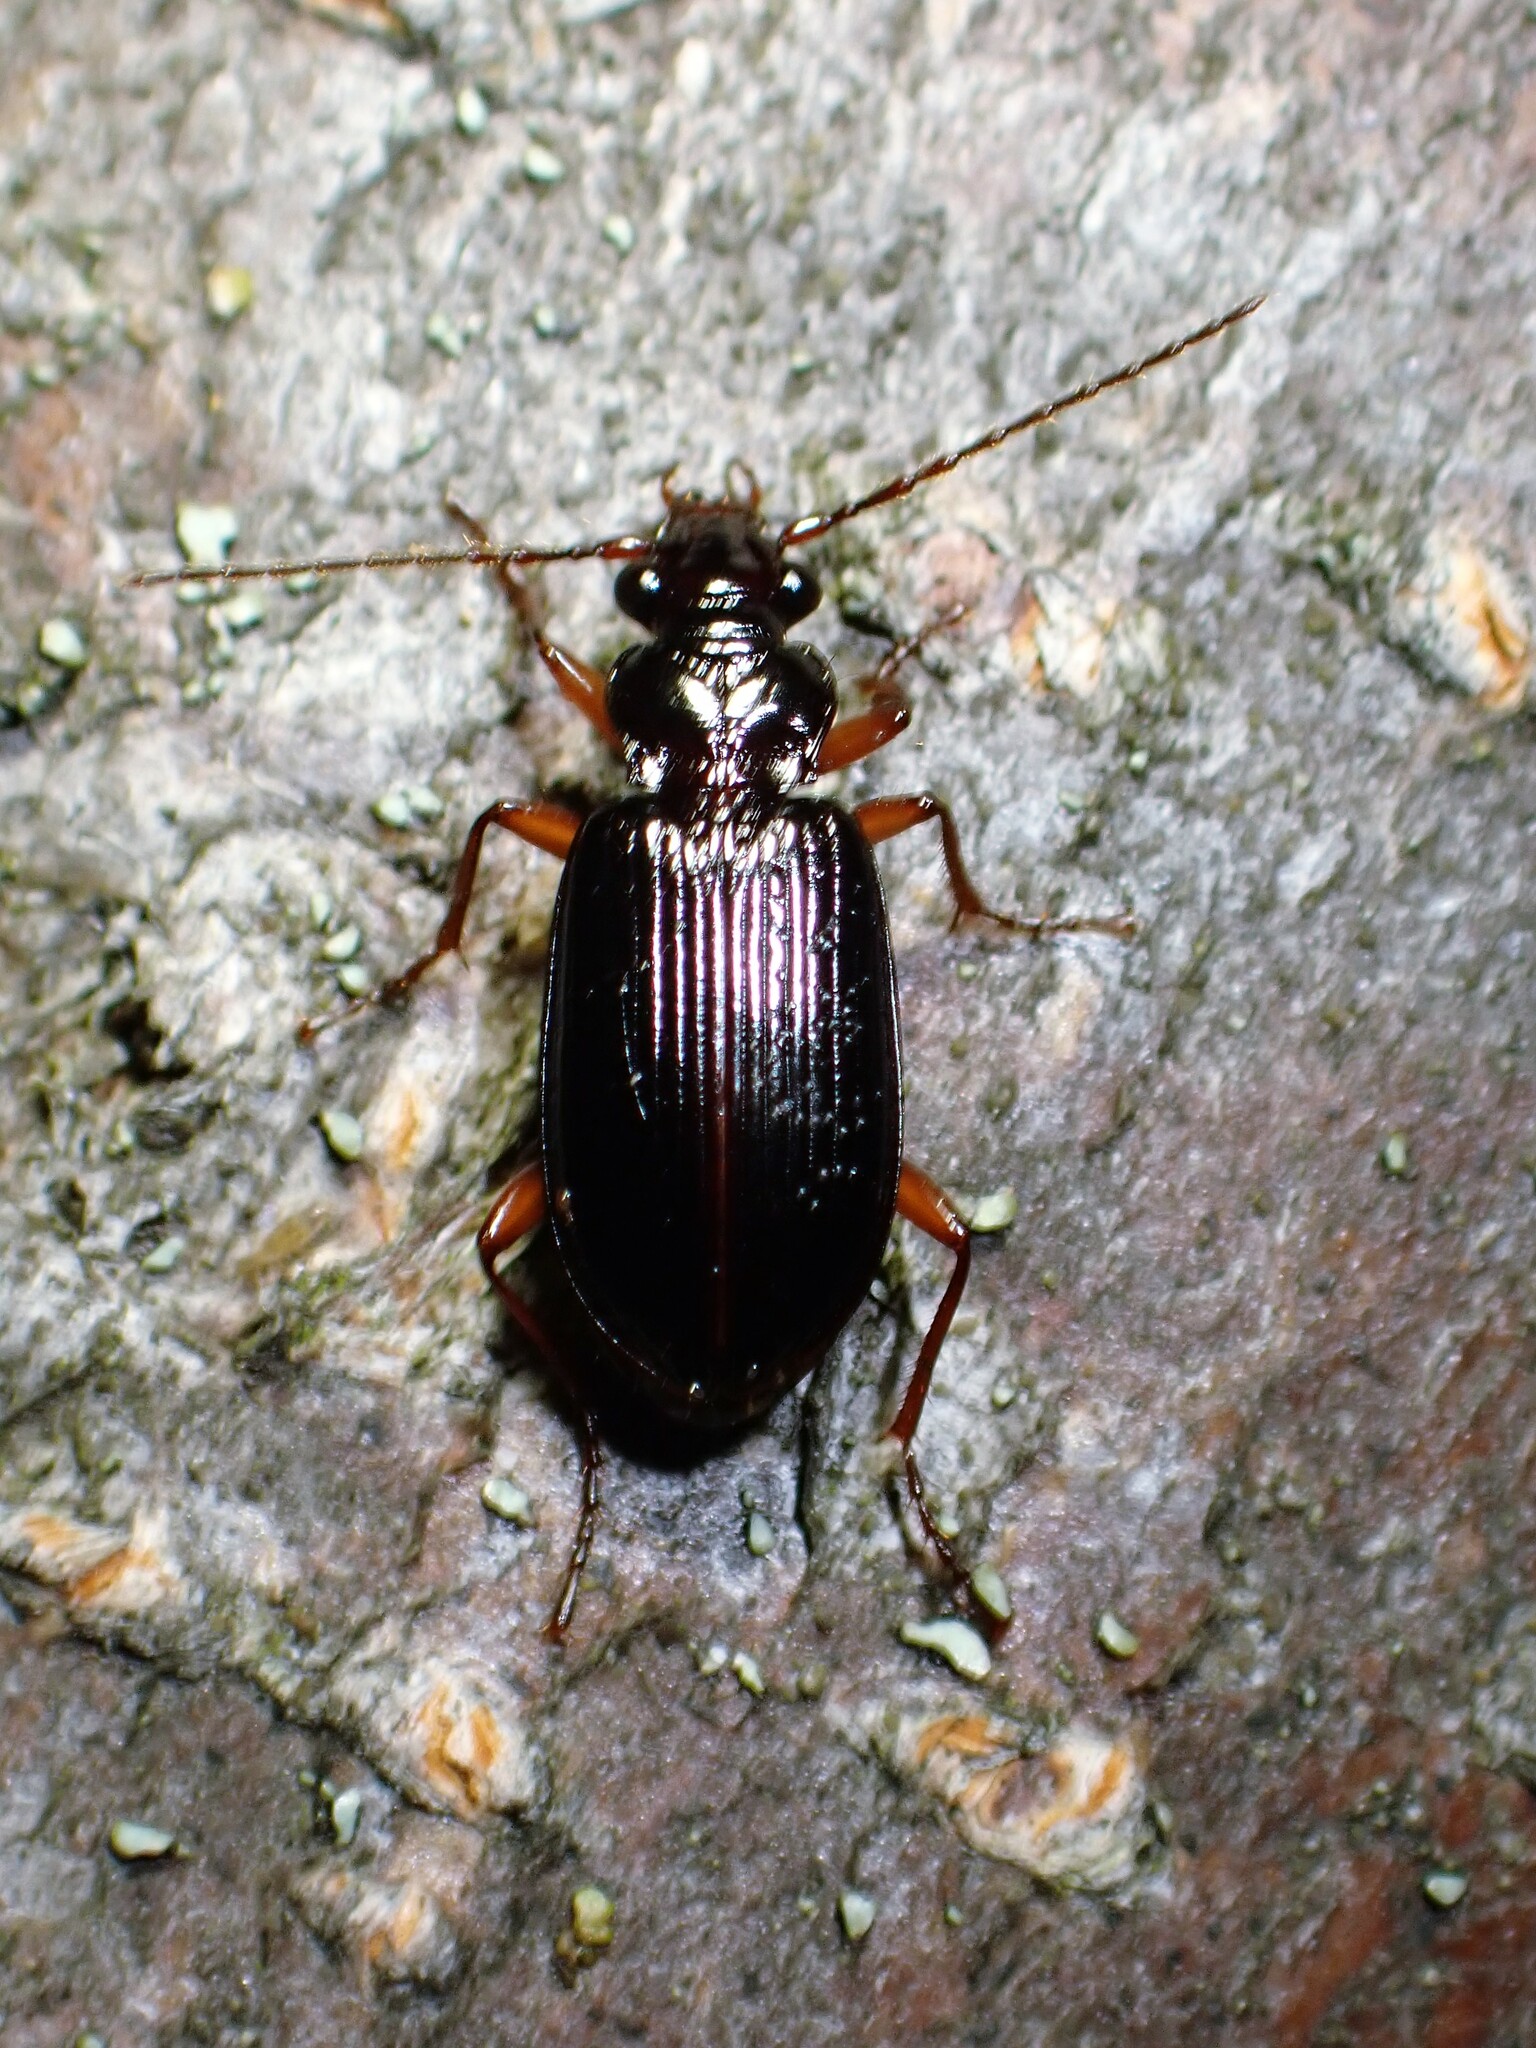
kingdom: Animalia
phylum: Arthropoda
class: Insecta
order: Coleoptera
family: Carabidae
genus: Platypatrobus
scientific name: Platypatrobus lacustris
